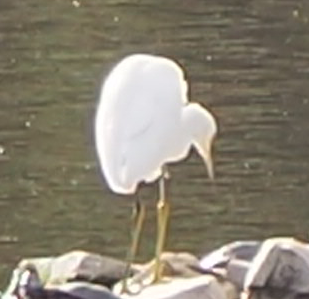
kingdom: Animalia
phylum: Chordata
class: Aves
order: Pelecaniformes
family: Ardeidae
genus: Egretta
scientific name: Egretta thula
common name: Snowy egret
